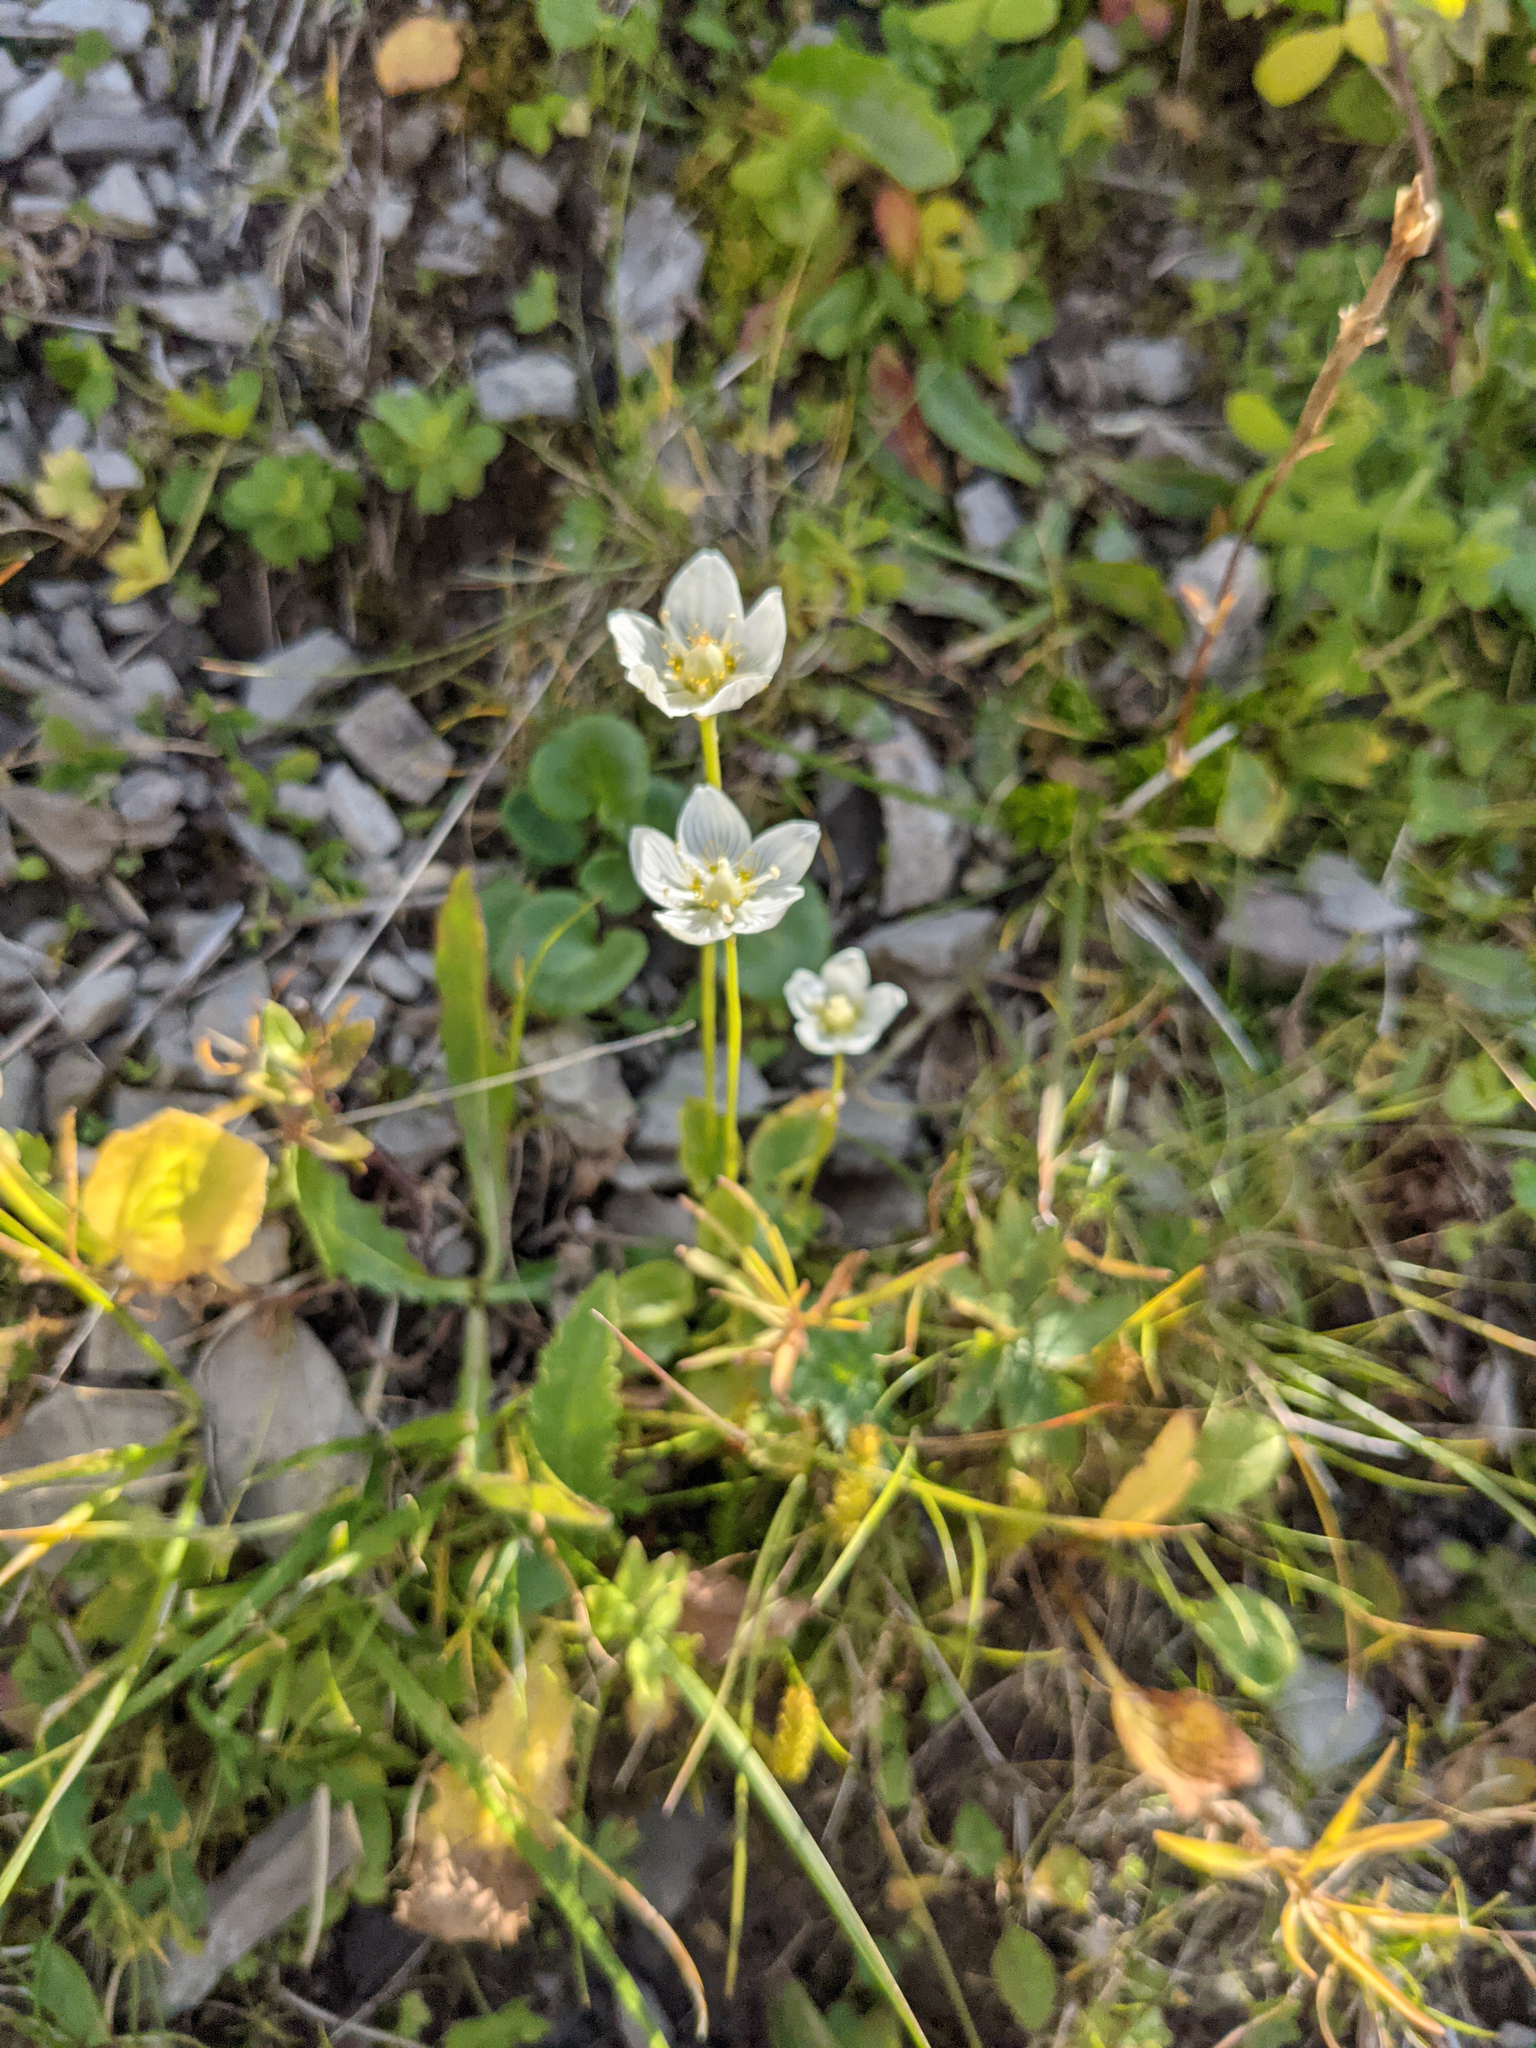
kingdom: Plantae
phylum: Tracheophyta
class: Magnoliopsida
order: Celastrales
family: Parnassiaceae
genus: Parnassia
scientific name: Parnassia palustris
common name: Grass-of-parnassus
